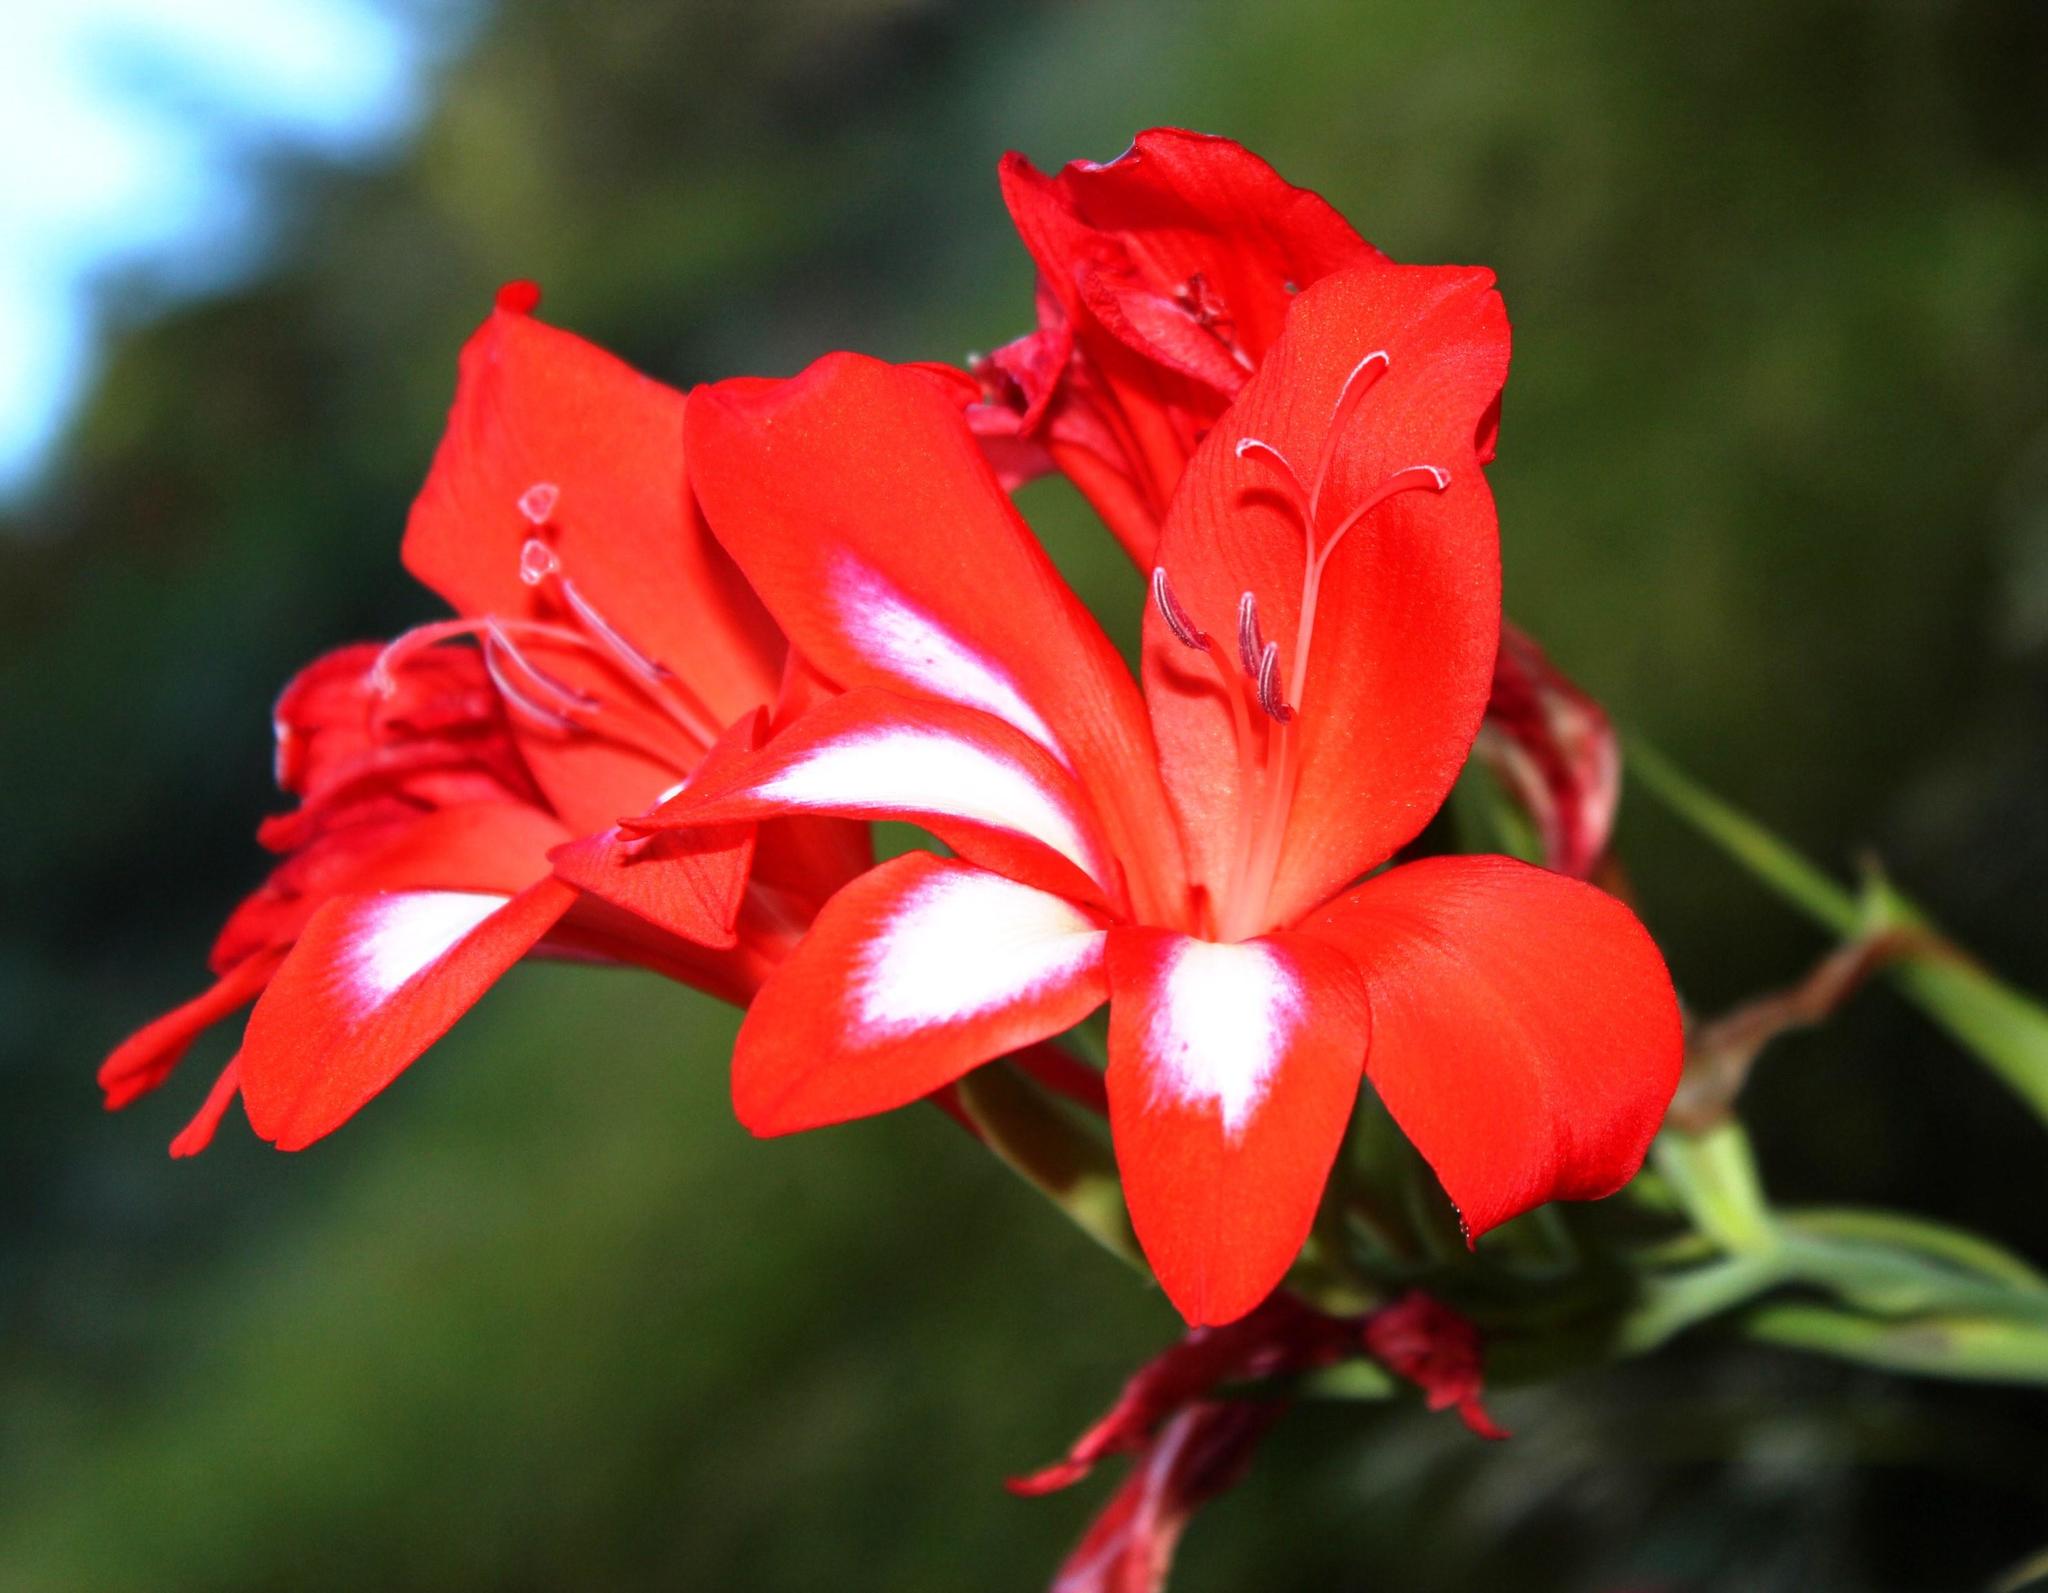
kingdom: Plantae
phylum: Tracheophyta
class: Liliopsida
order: Asparagales
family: Iridaceae
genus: Gladiolus
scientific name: Gladiolus cardinalis
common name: New year-lily
